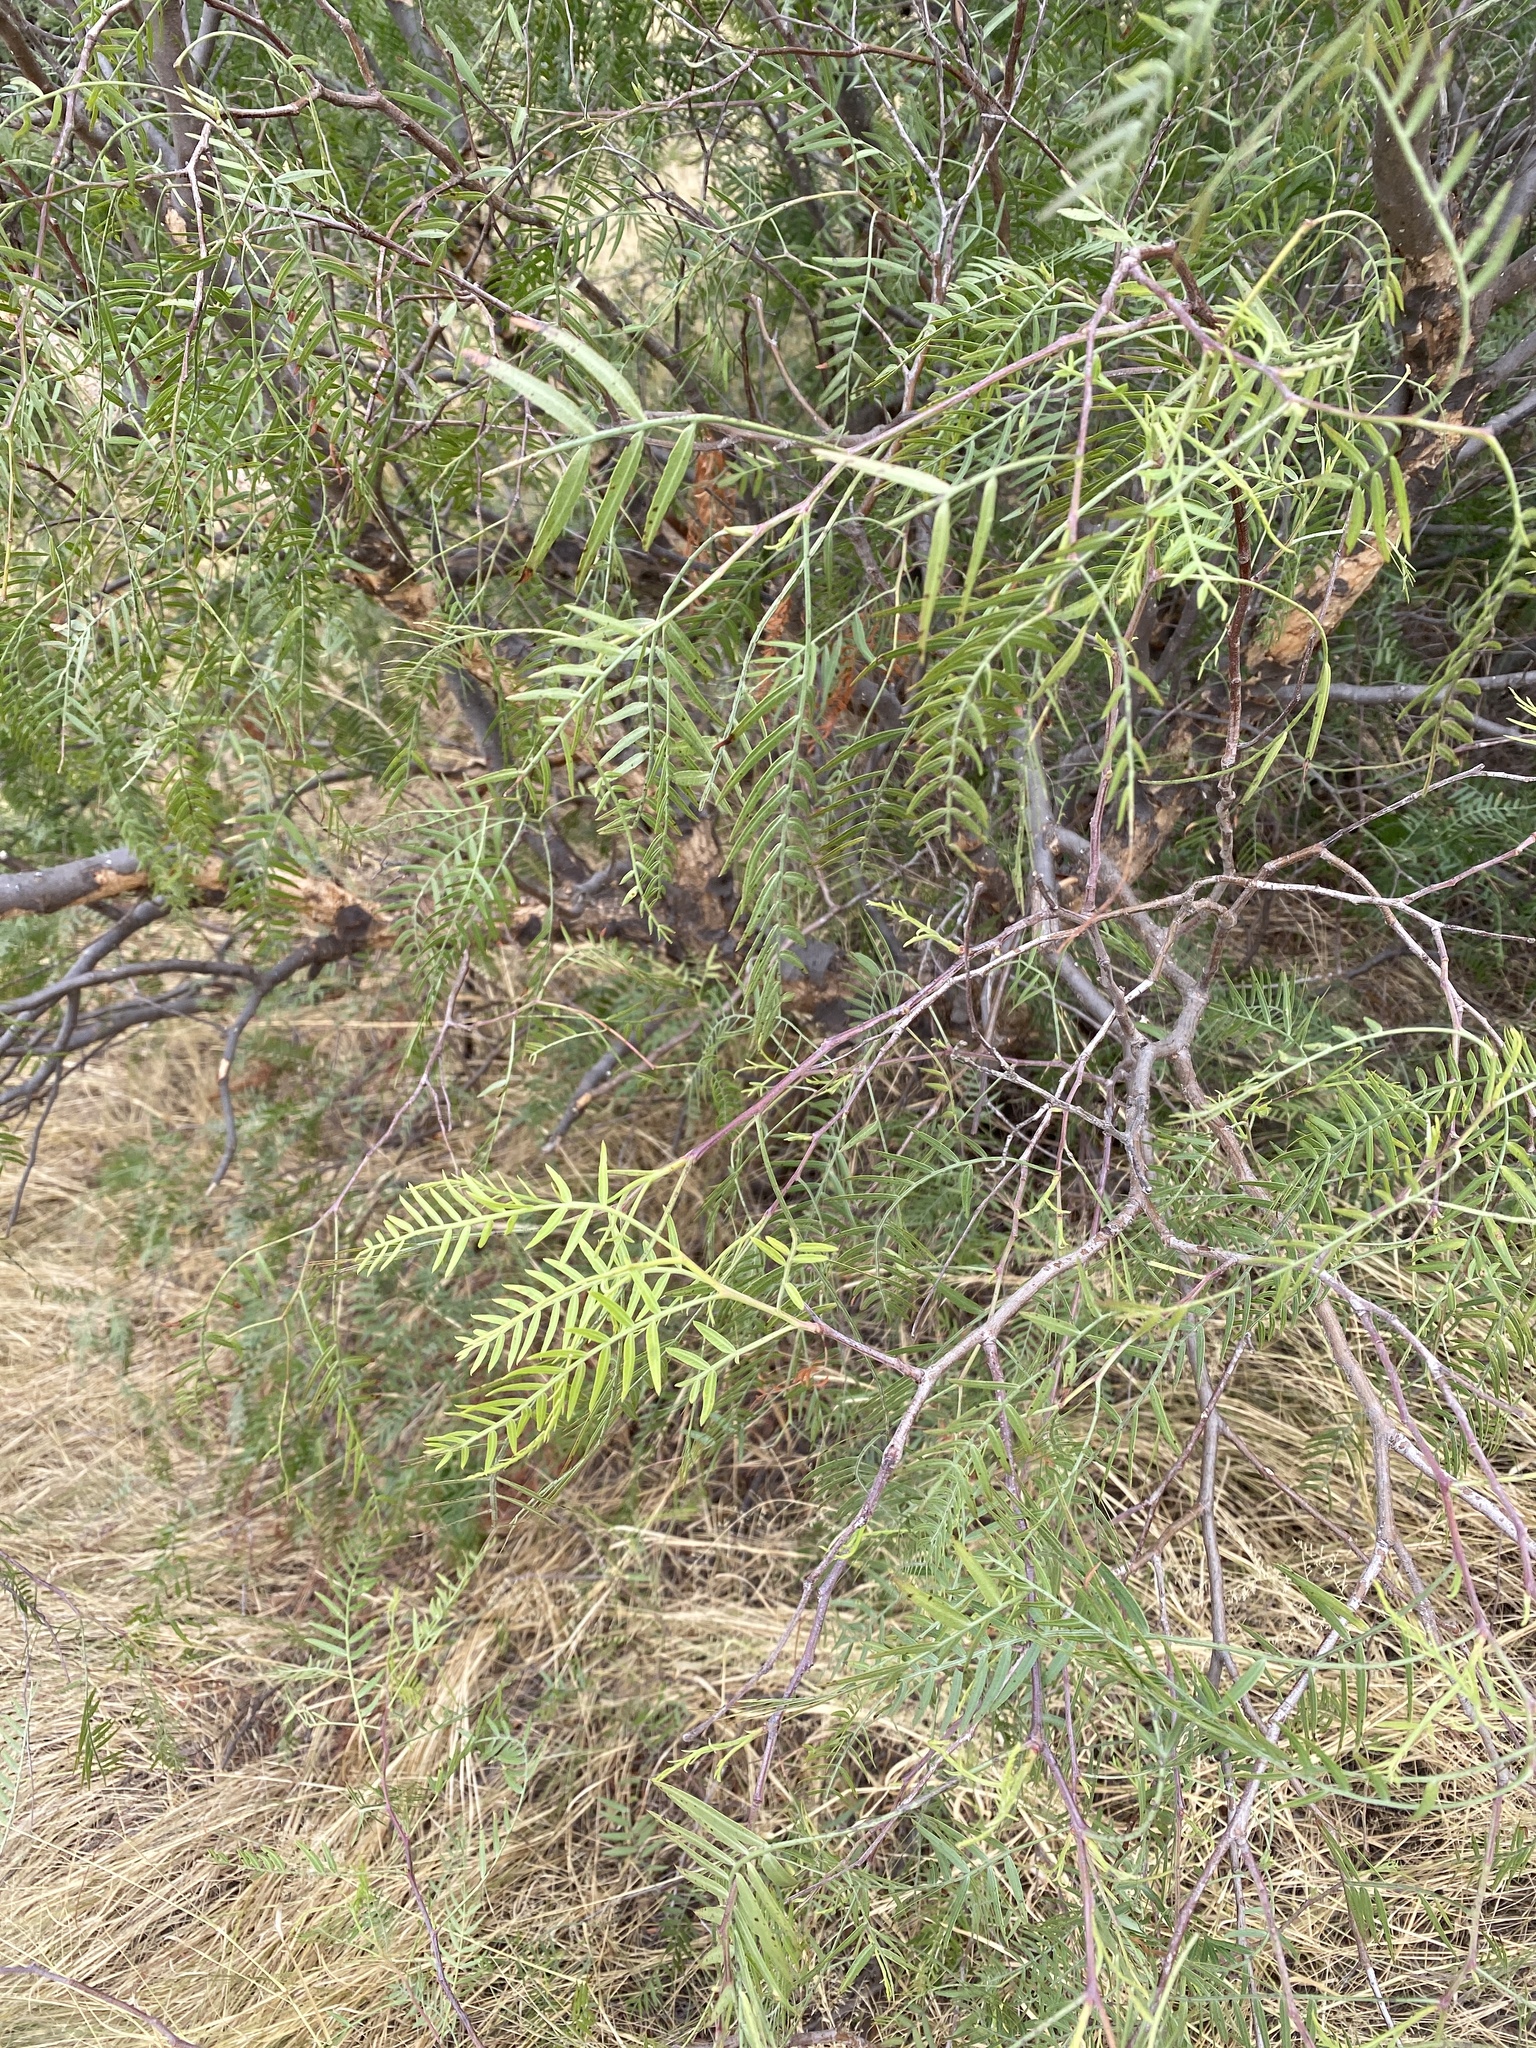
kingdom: Plantae
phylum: Tracheophyta
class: Magnoliopsida
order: Sapindales
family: Anacardiaceae
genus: Schinus
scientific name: Schinus molle
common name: Peruvian peppertree
